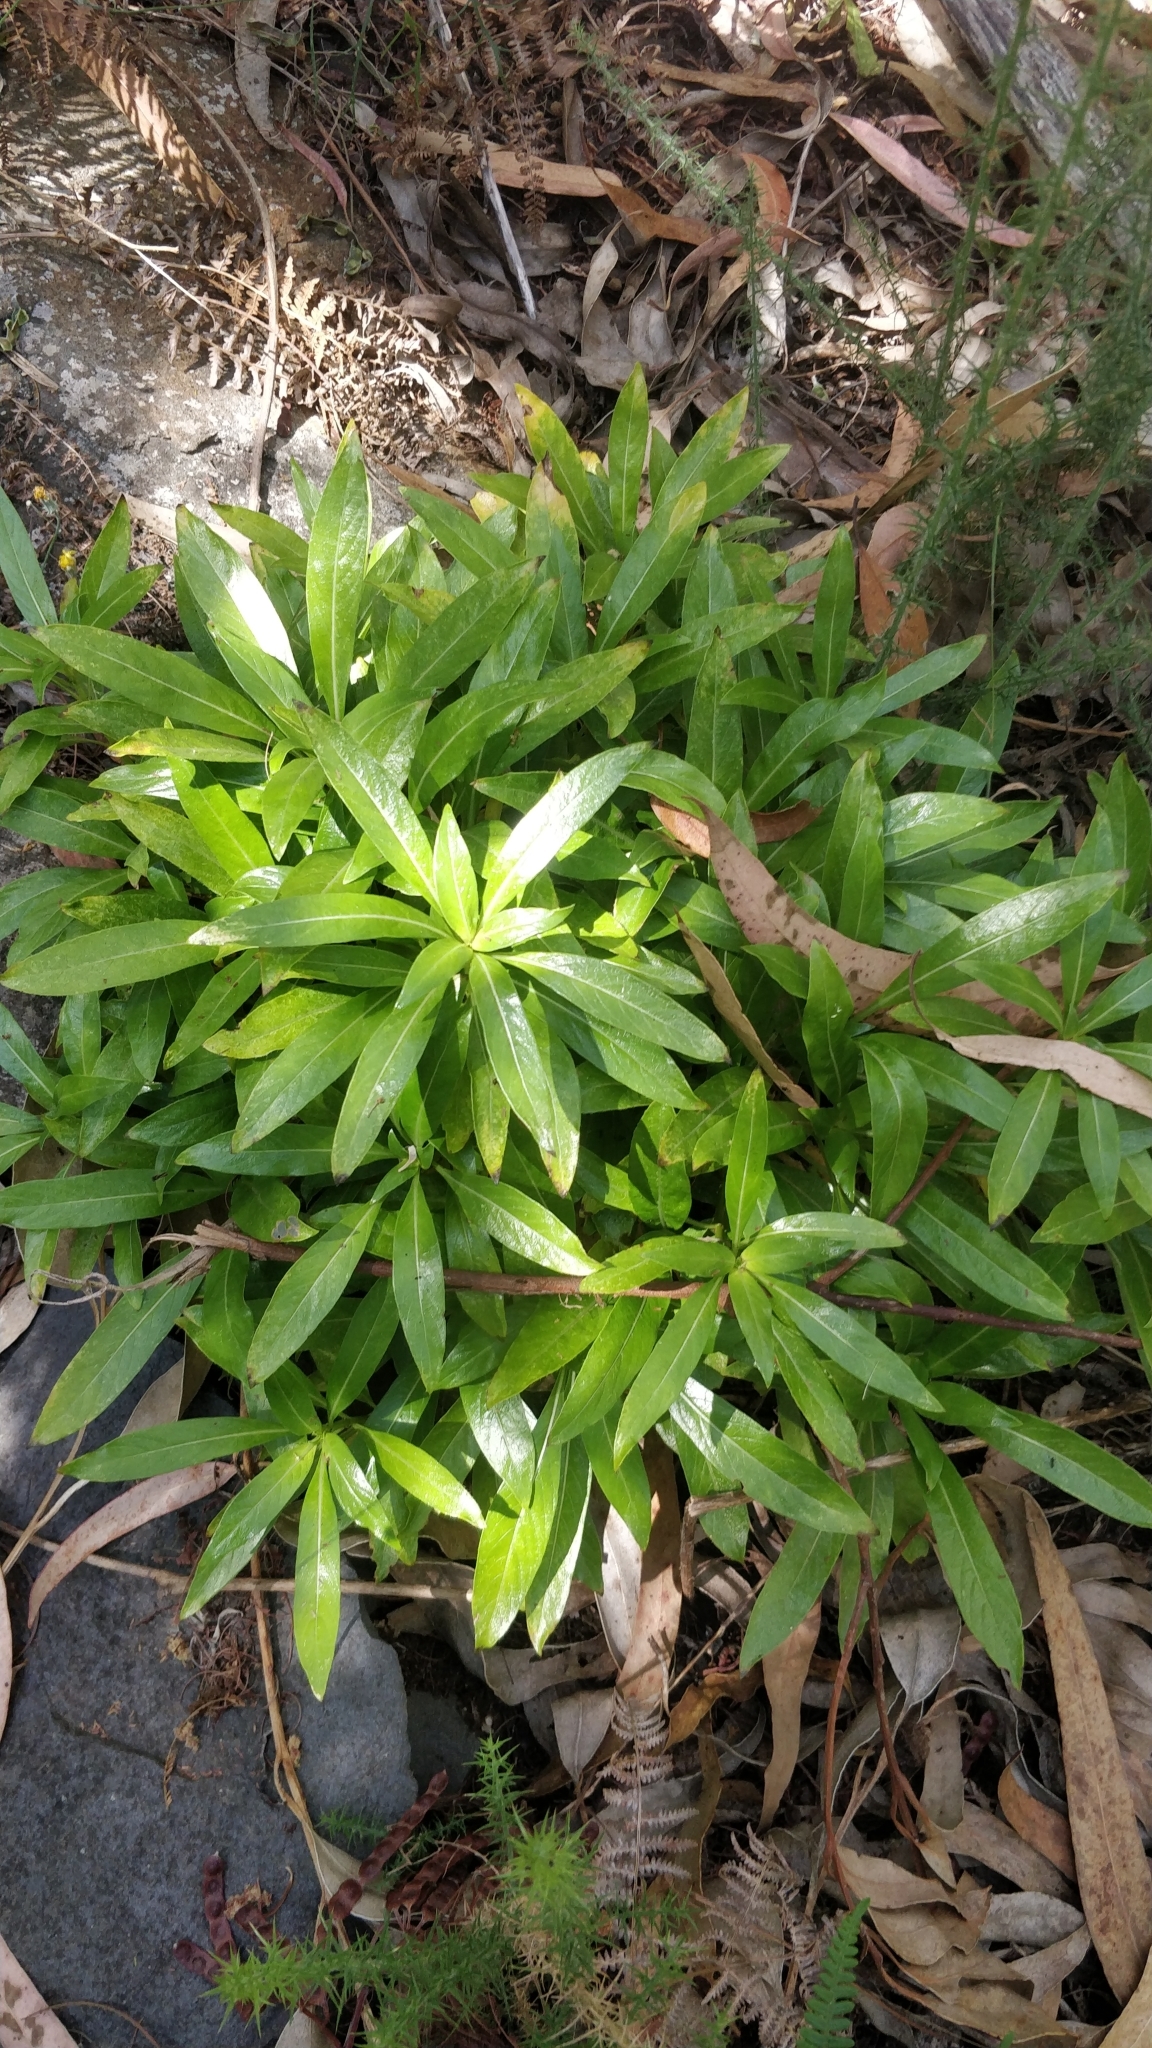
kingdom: Plantae
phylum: Tracheophyta
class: Magnoliopsida
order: Gentianales
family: Rubiaceae
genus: Phyllis
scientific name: Phyllis nobla
